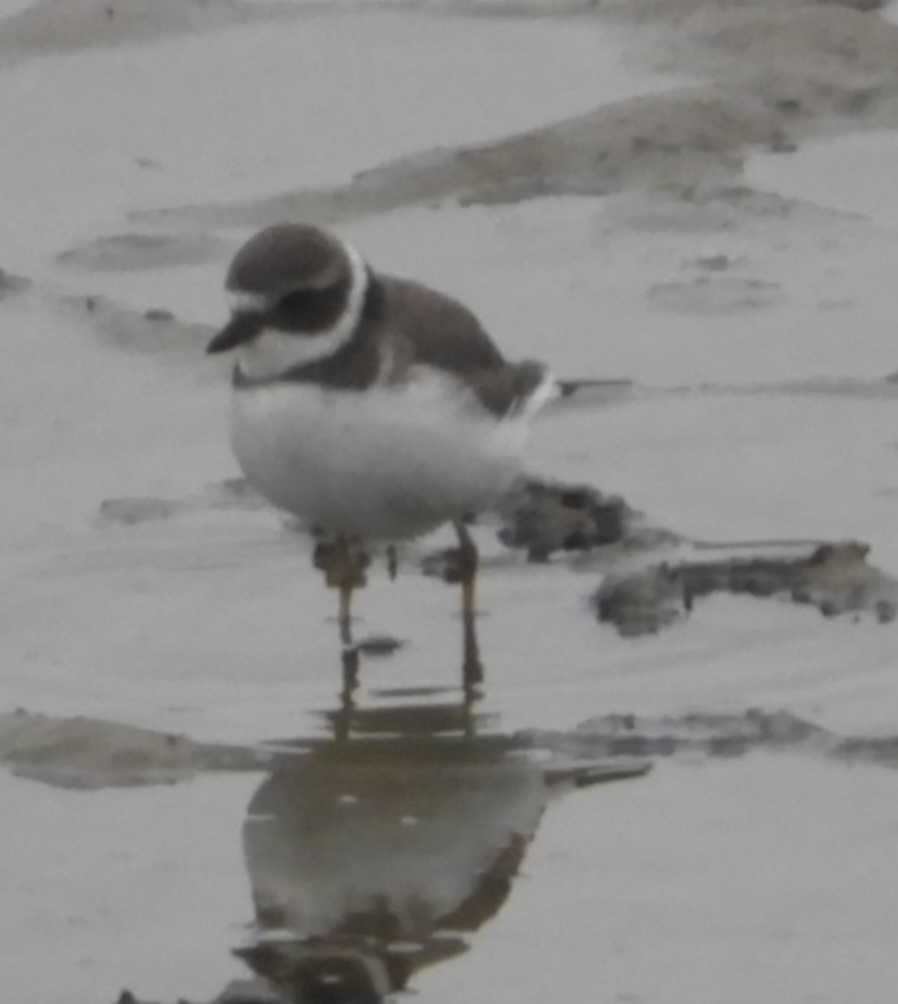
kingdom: Animalia
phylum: Chordata
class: Aves
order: Charadriiformes
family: Charadriidae
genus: Charadrius
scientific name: Charadrius semipalmatus
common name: Semipalmated plover
